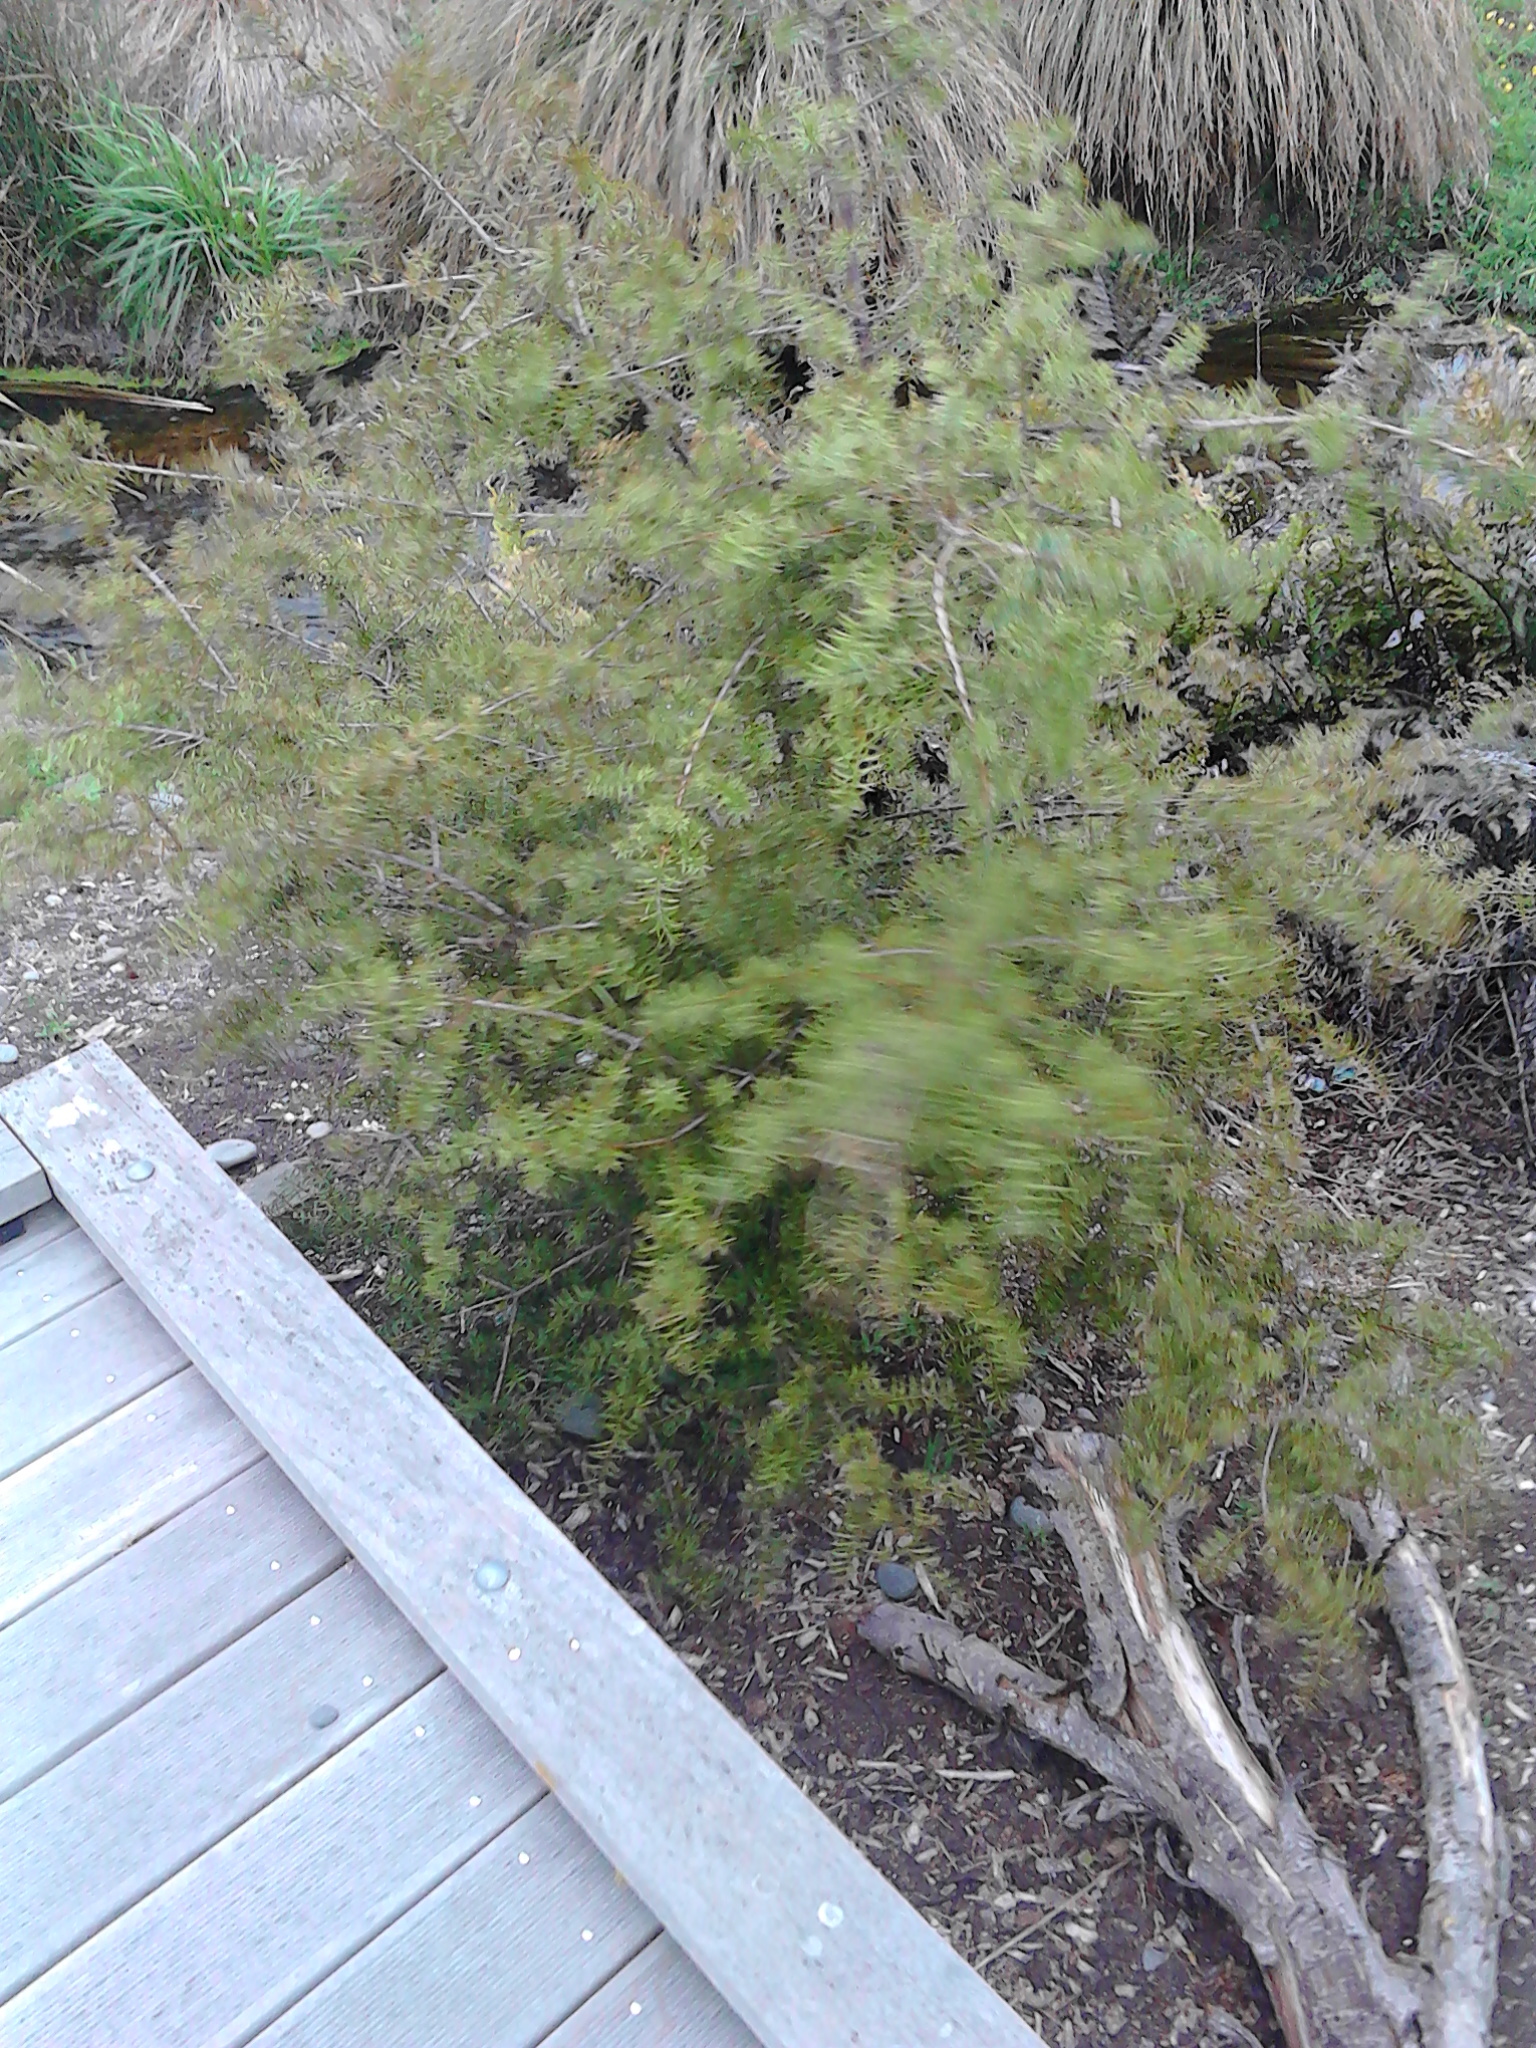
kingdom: Plantae
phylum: Tracheophyta
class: Pinopsida
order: Pinales
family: Podocarpaceae
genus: Podocarpus
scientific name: Podocarpus totara
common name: Totara
